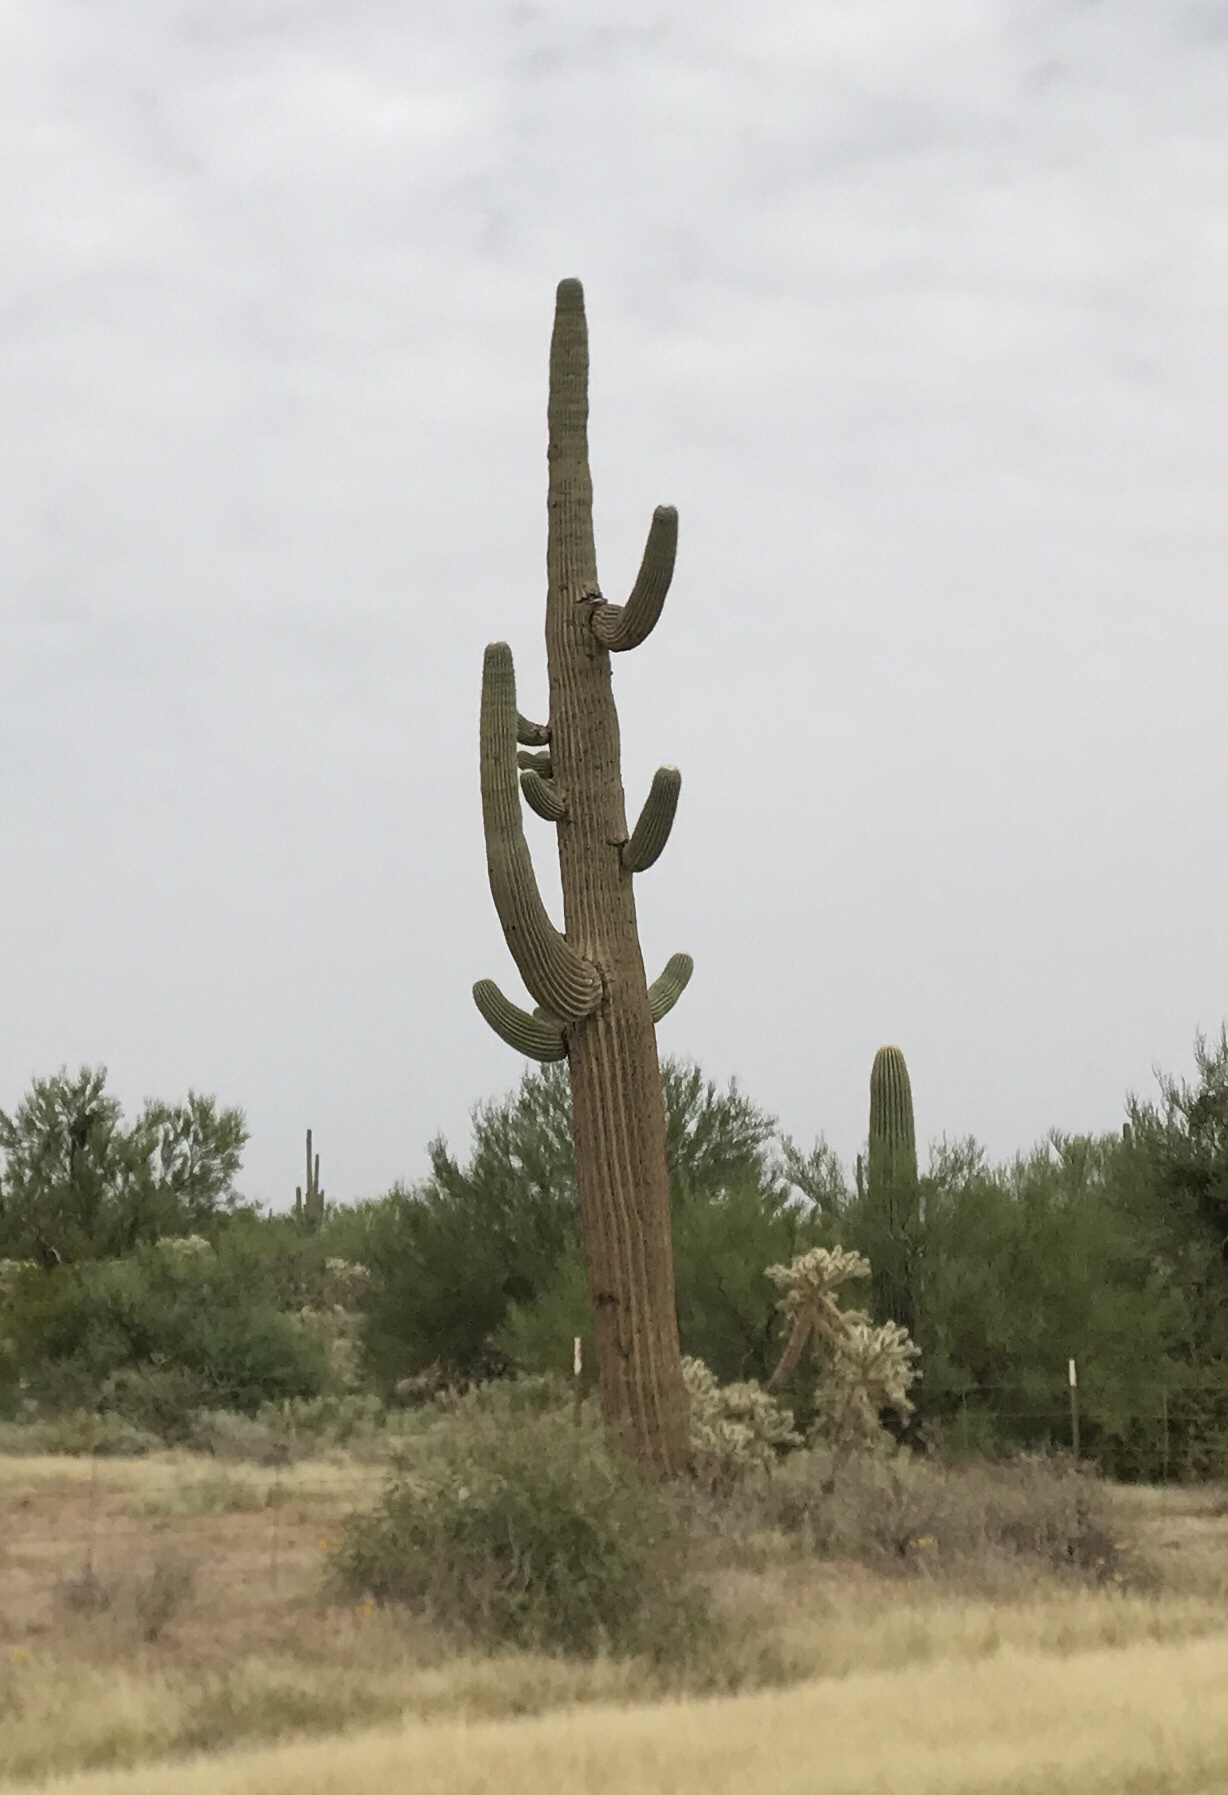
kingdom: Plantae
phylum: Tracheophyta
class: Magnoliopsida
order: Caryophyllales
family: Cactaceae
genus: Carnegiea
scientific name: Carnegiea gigantea
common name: Saguaro
